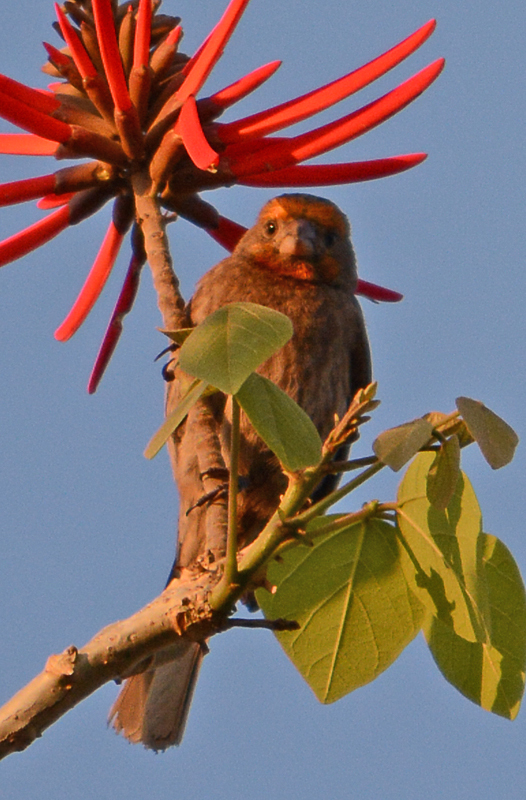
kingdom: Animalia
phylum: Chordata
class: Aves
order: Passeriformes
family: Fringillidae
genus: Haemorhous
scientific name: Haemorhous mexicanus
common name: House finch
